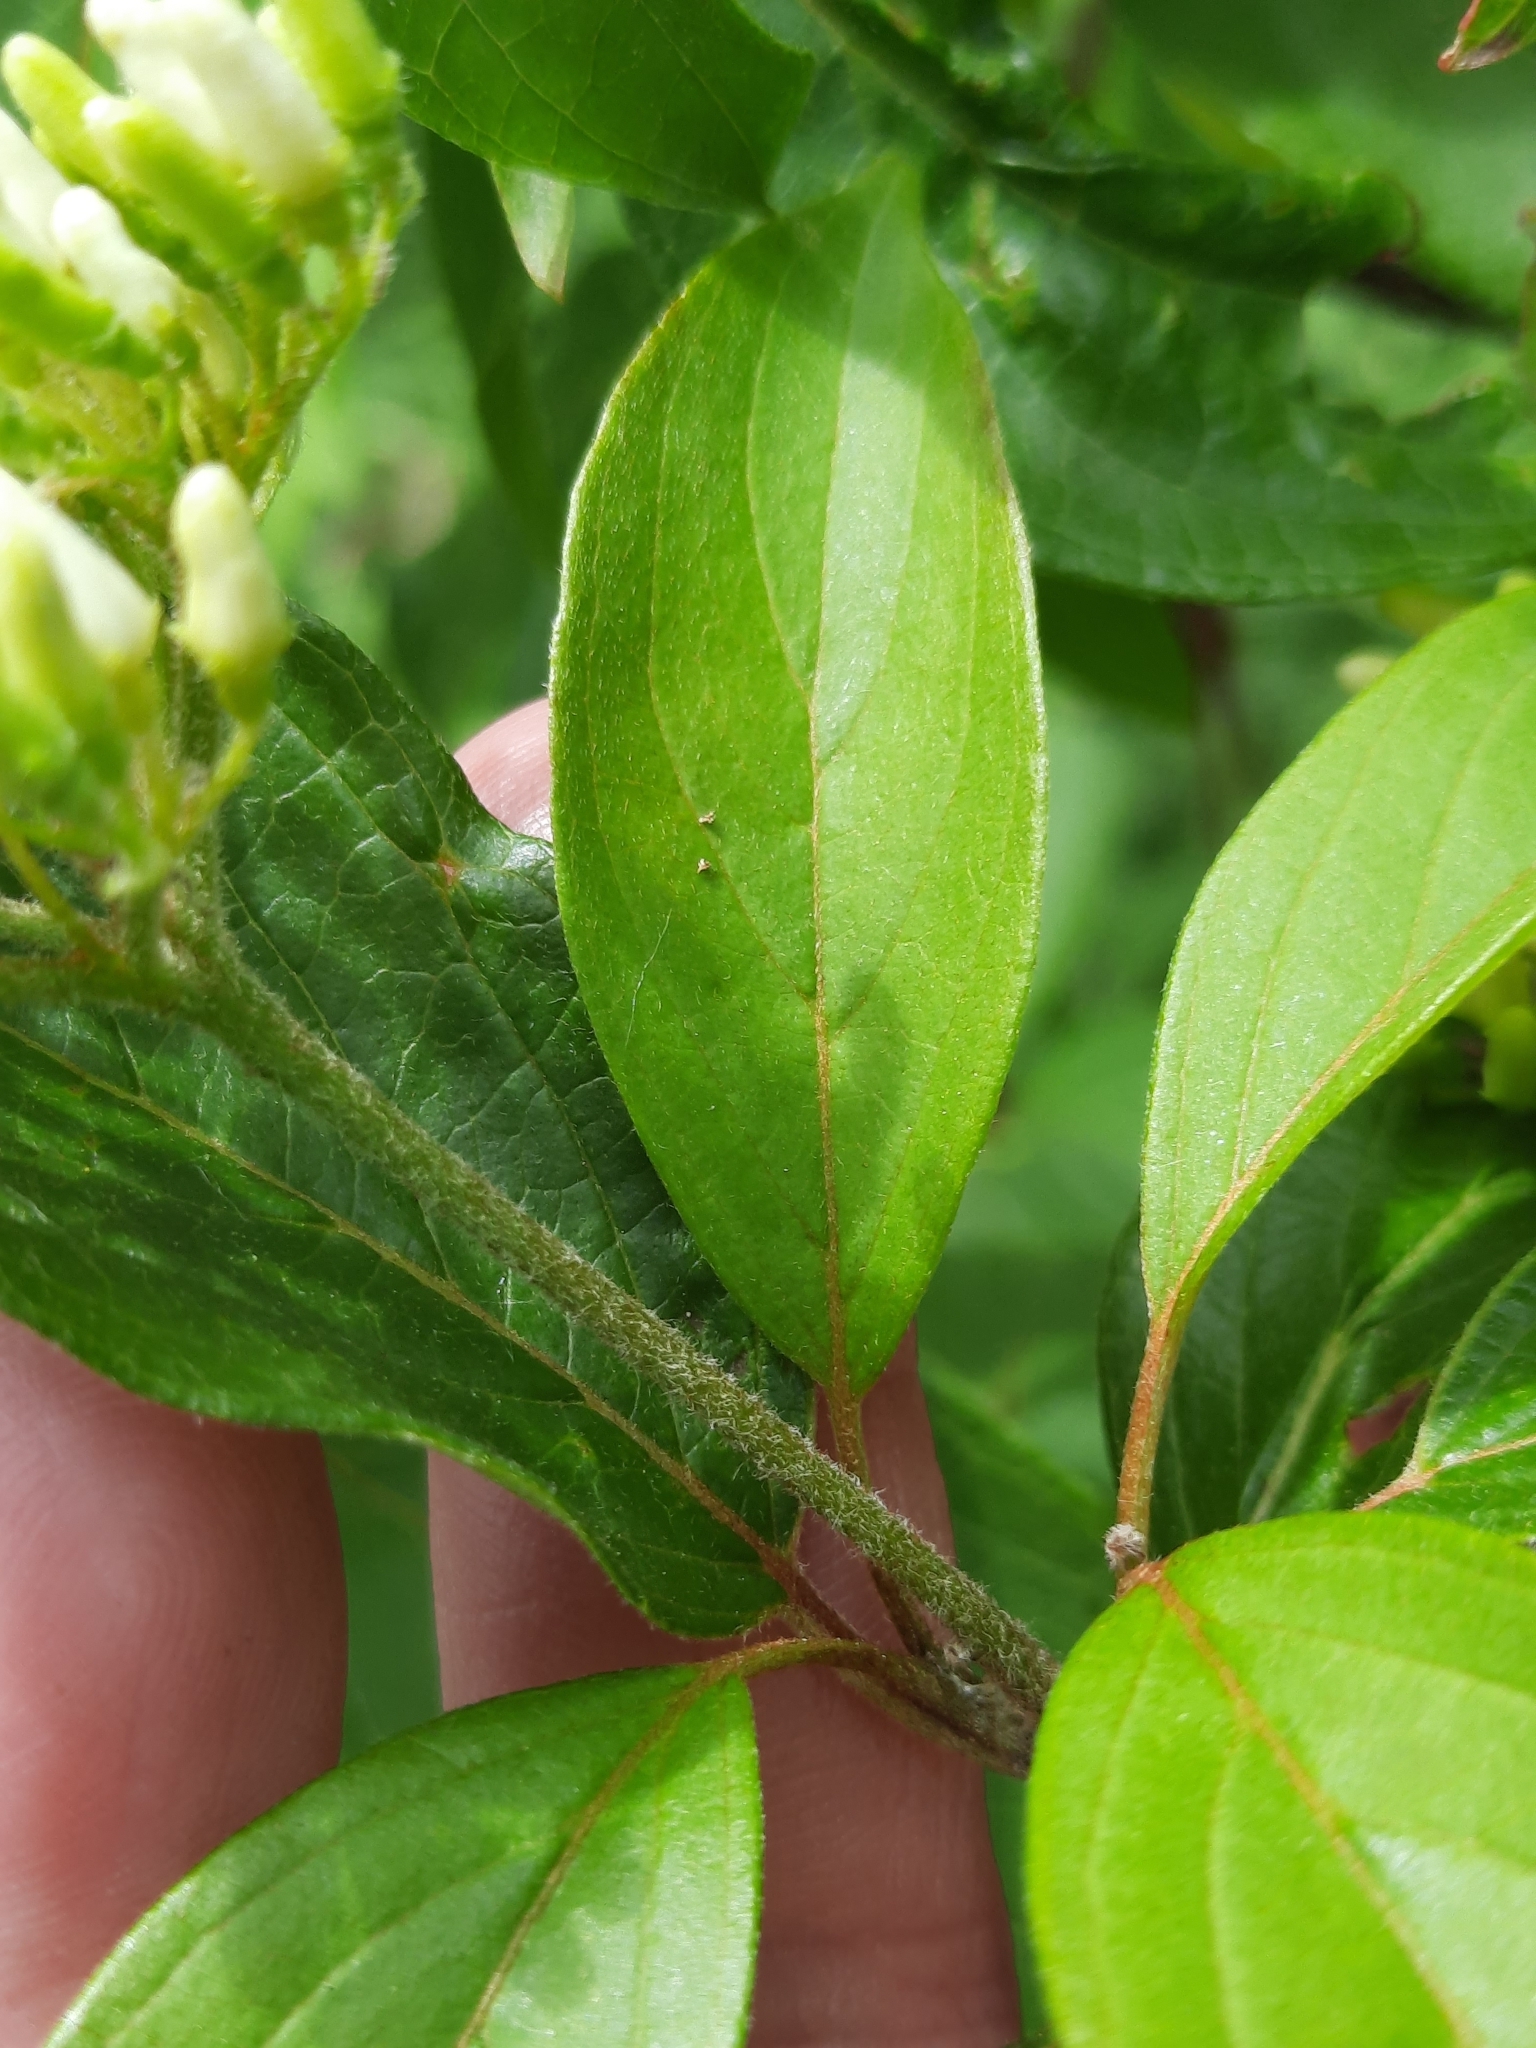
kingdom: Plantae
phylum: Tracheophyta
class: Magnoliopsida
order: Cornales
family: Cornaceae
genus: Cornus
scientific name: Cornus amomum
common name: Silky dogwood
